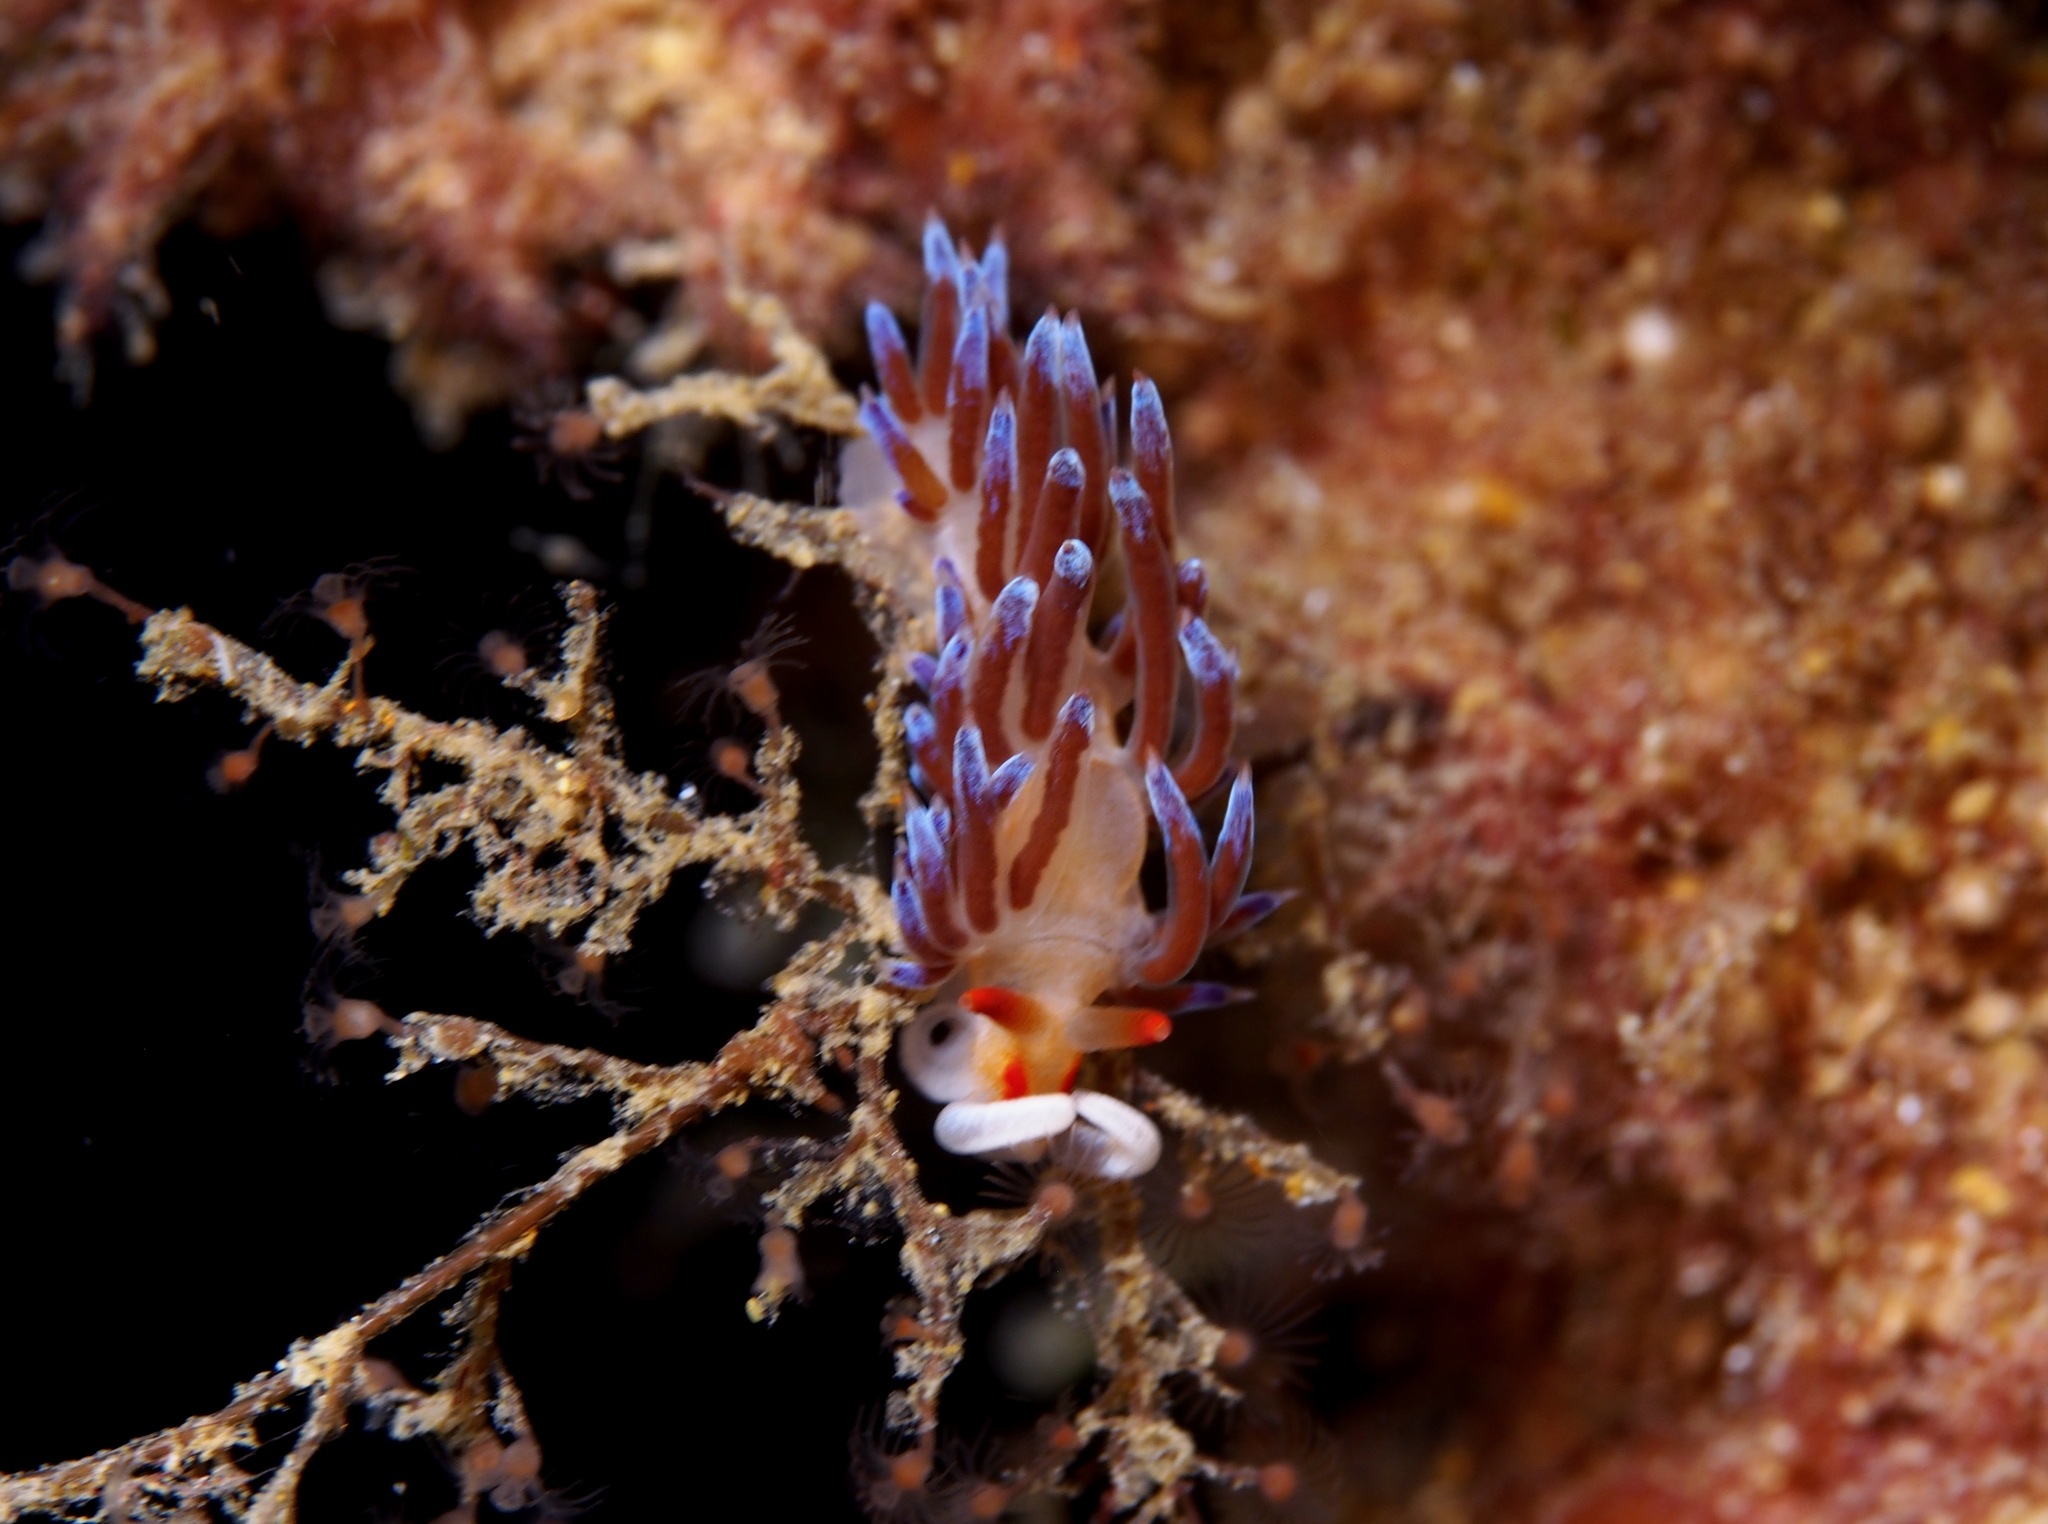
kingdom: Animalia
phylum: Mollusca
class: Gastropoda
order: Nudibranchia
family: Facelinidae
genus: Cratena
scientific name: Cratena peregrina
